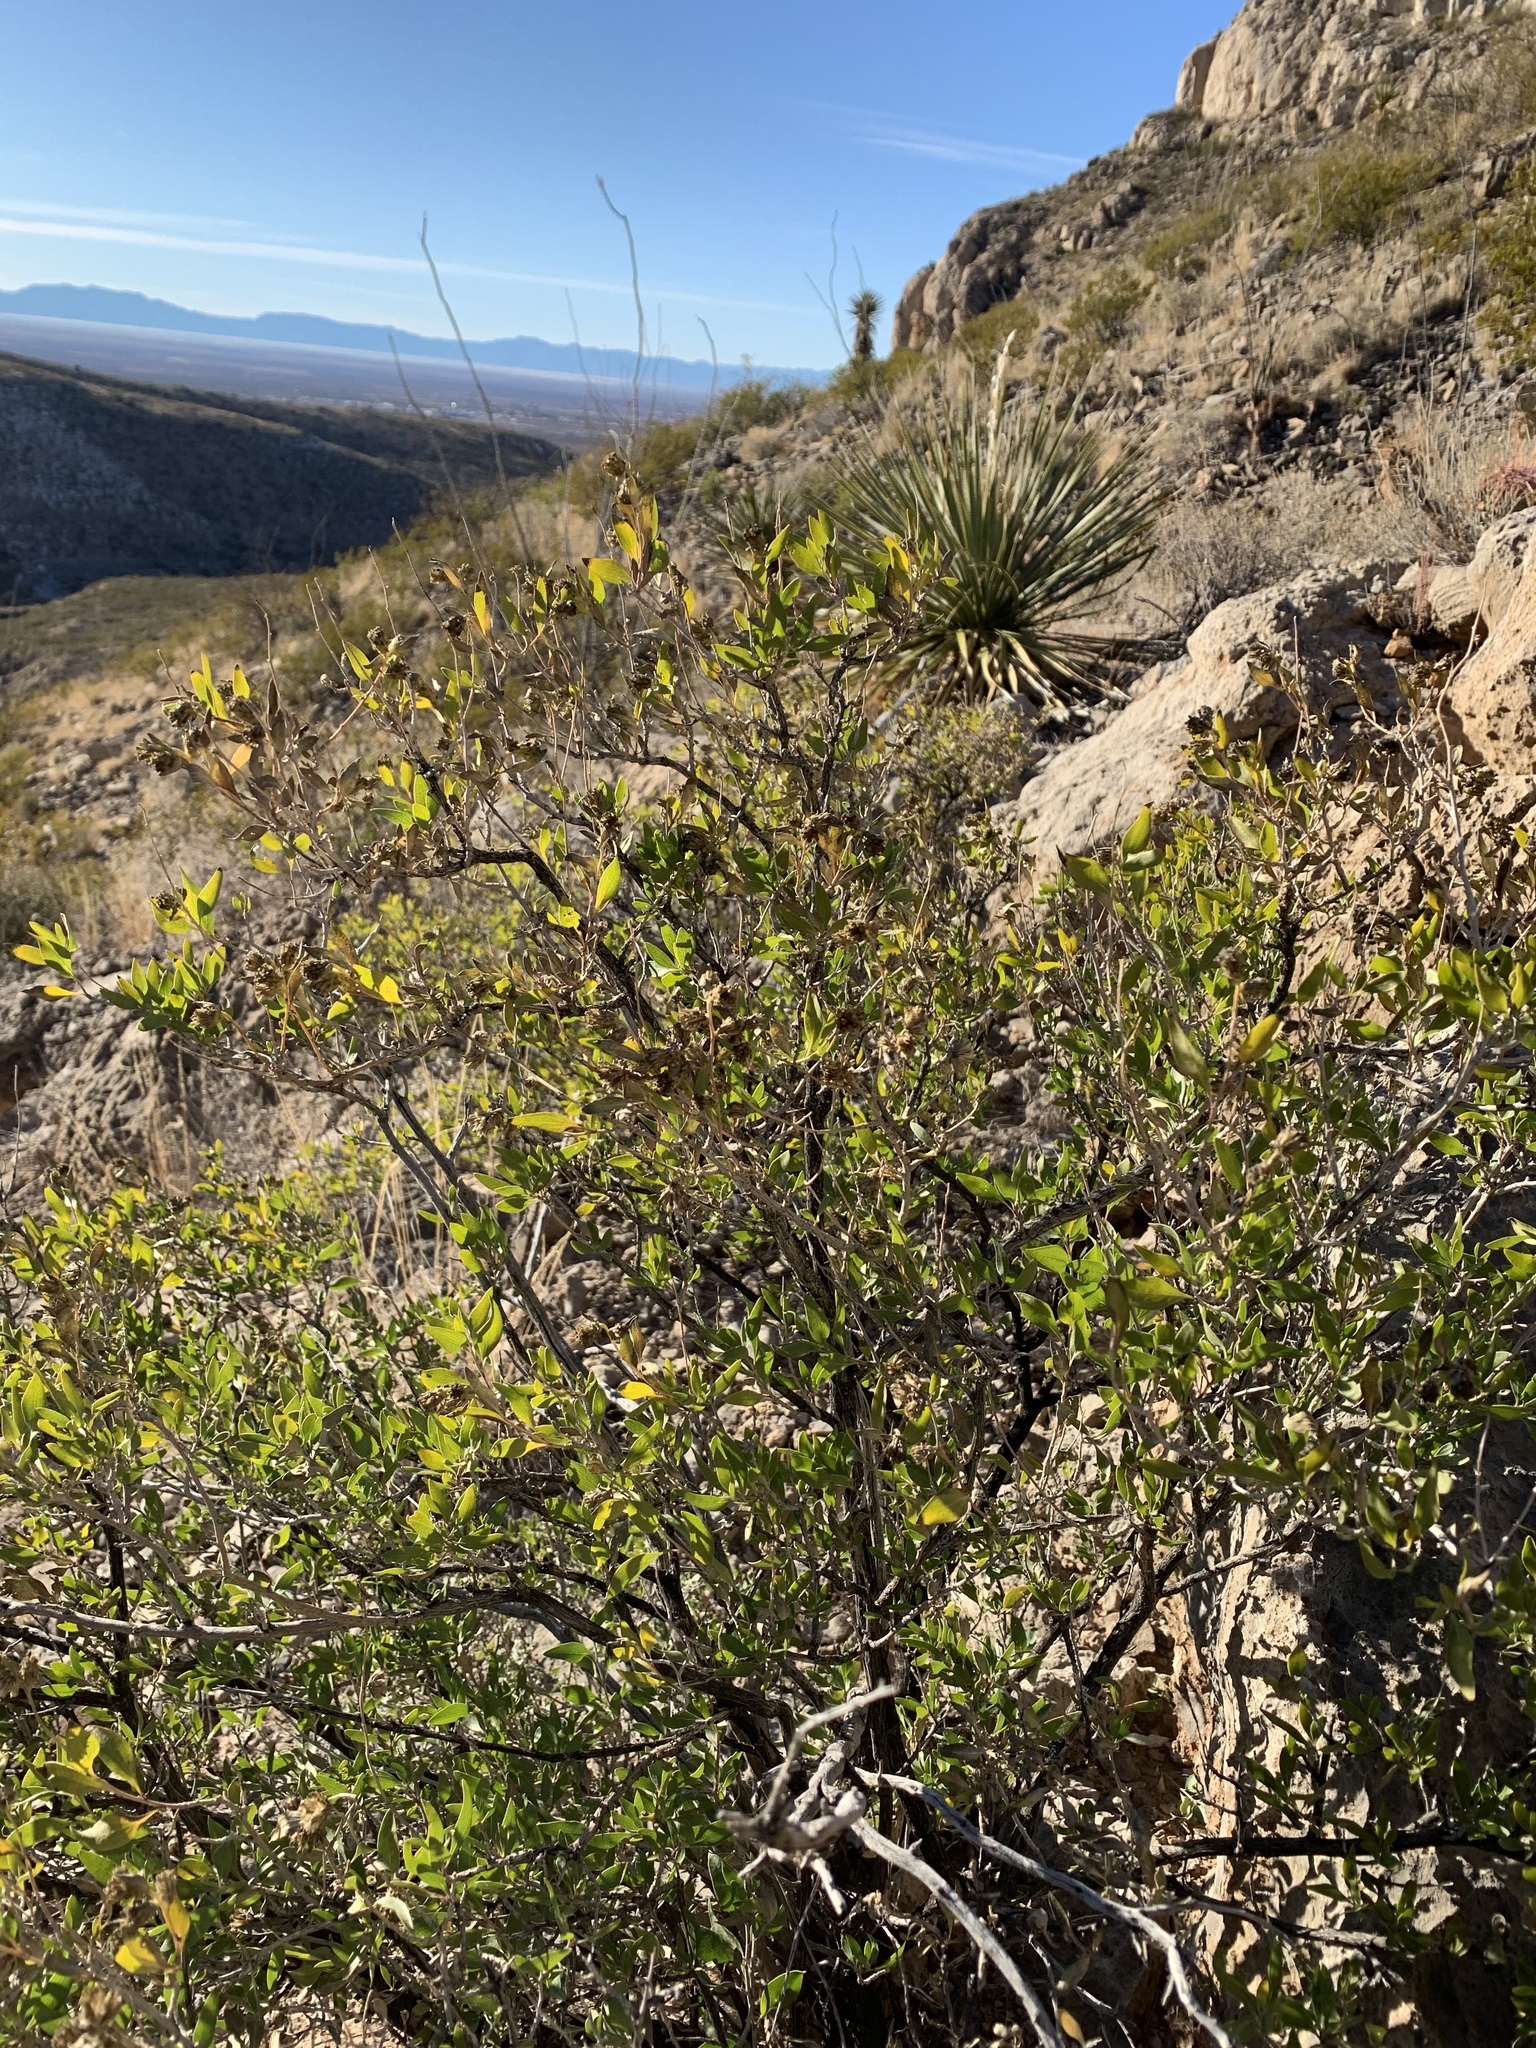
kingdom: Plantae
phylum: Tracheophyta
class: Magnoliopsida
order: Asterales
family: Asteraceae
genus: Flourensia
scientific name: Flourensia cernua
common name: Varnishbush
